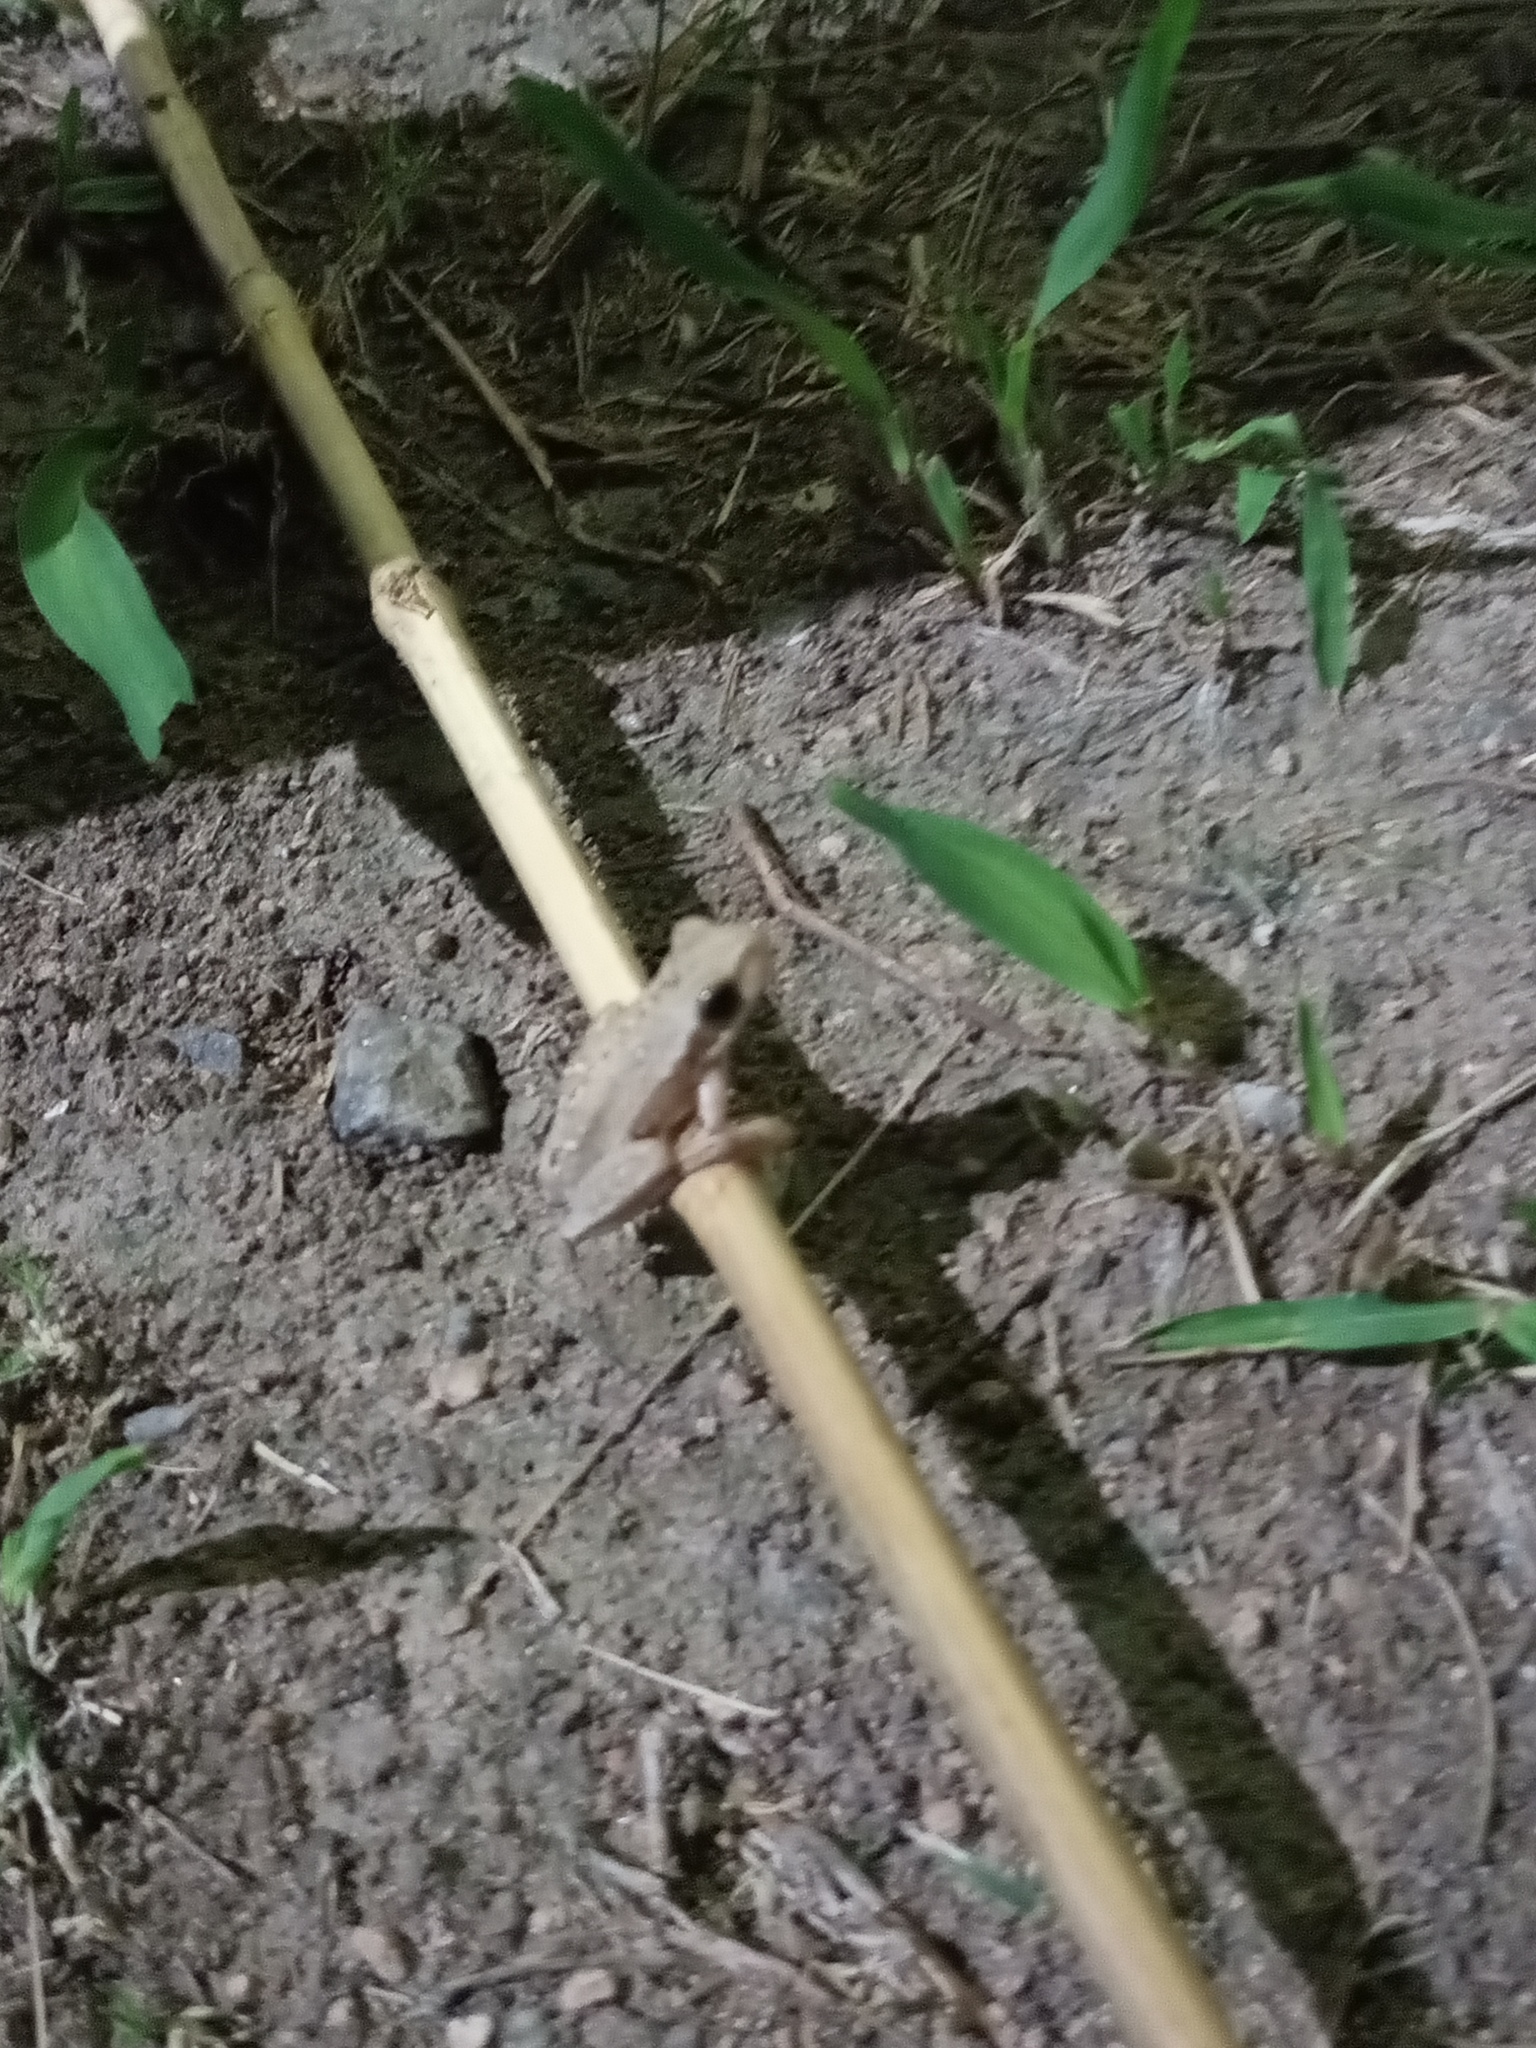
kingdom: Animalia
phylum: Chordata
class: Amphibia
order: Anura
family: Hylidae
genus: Boana
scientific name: Boana pulchella
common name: Montevideo treefrog
